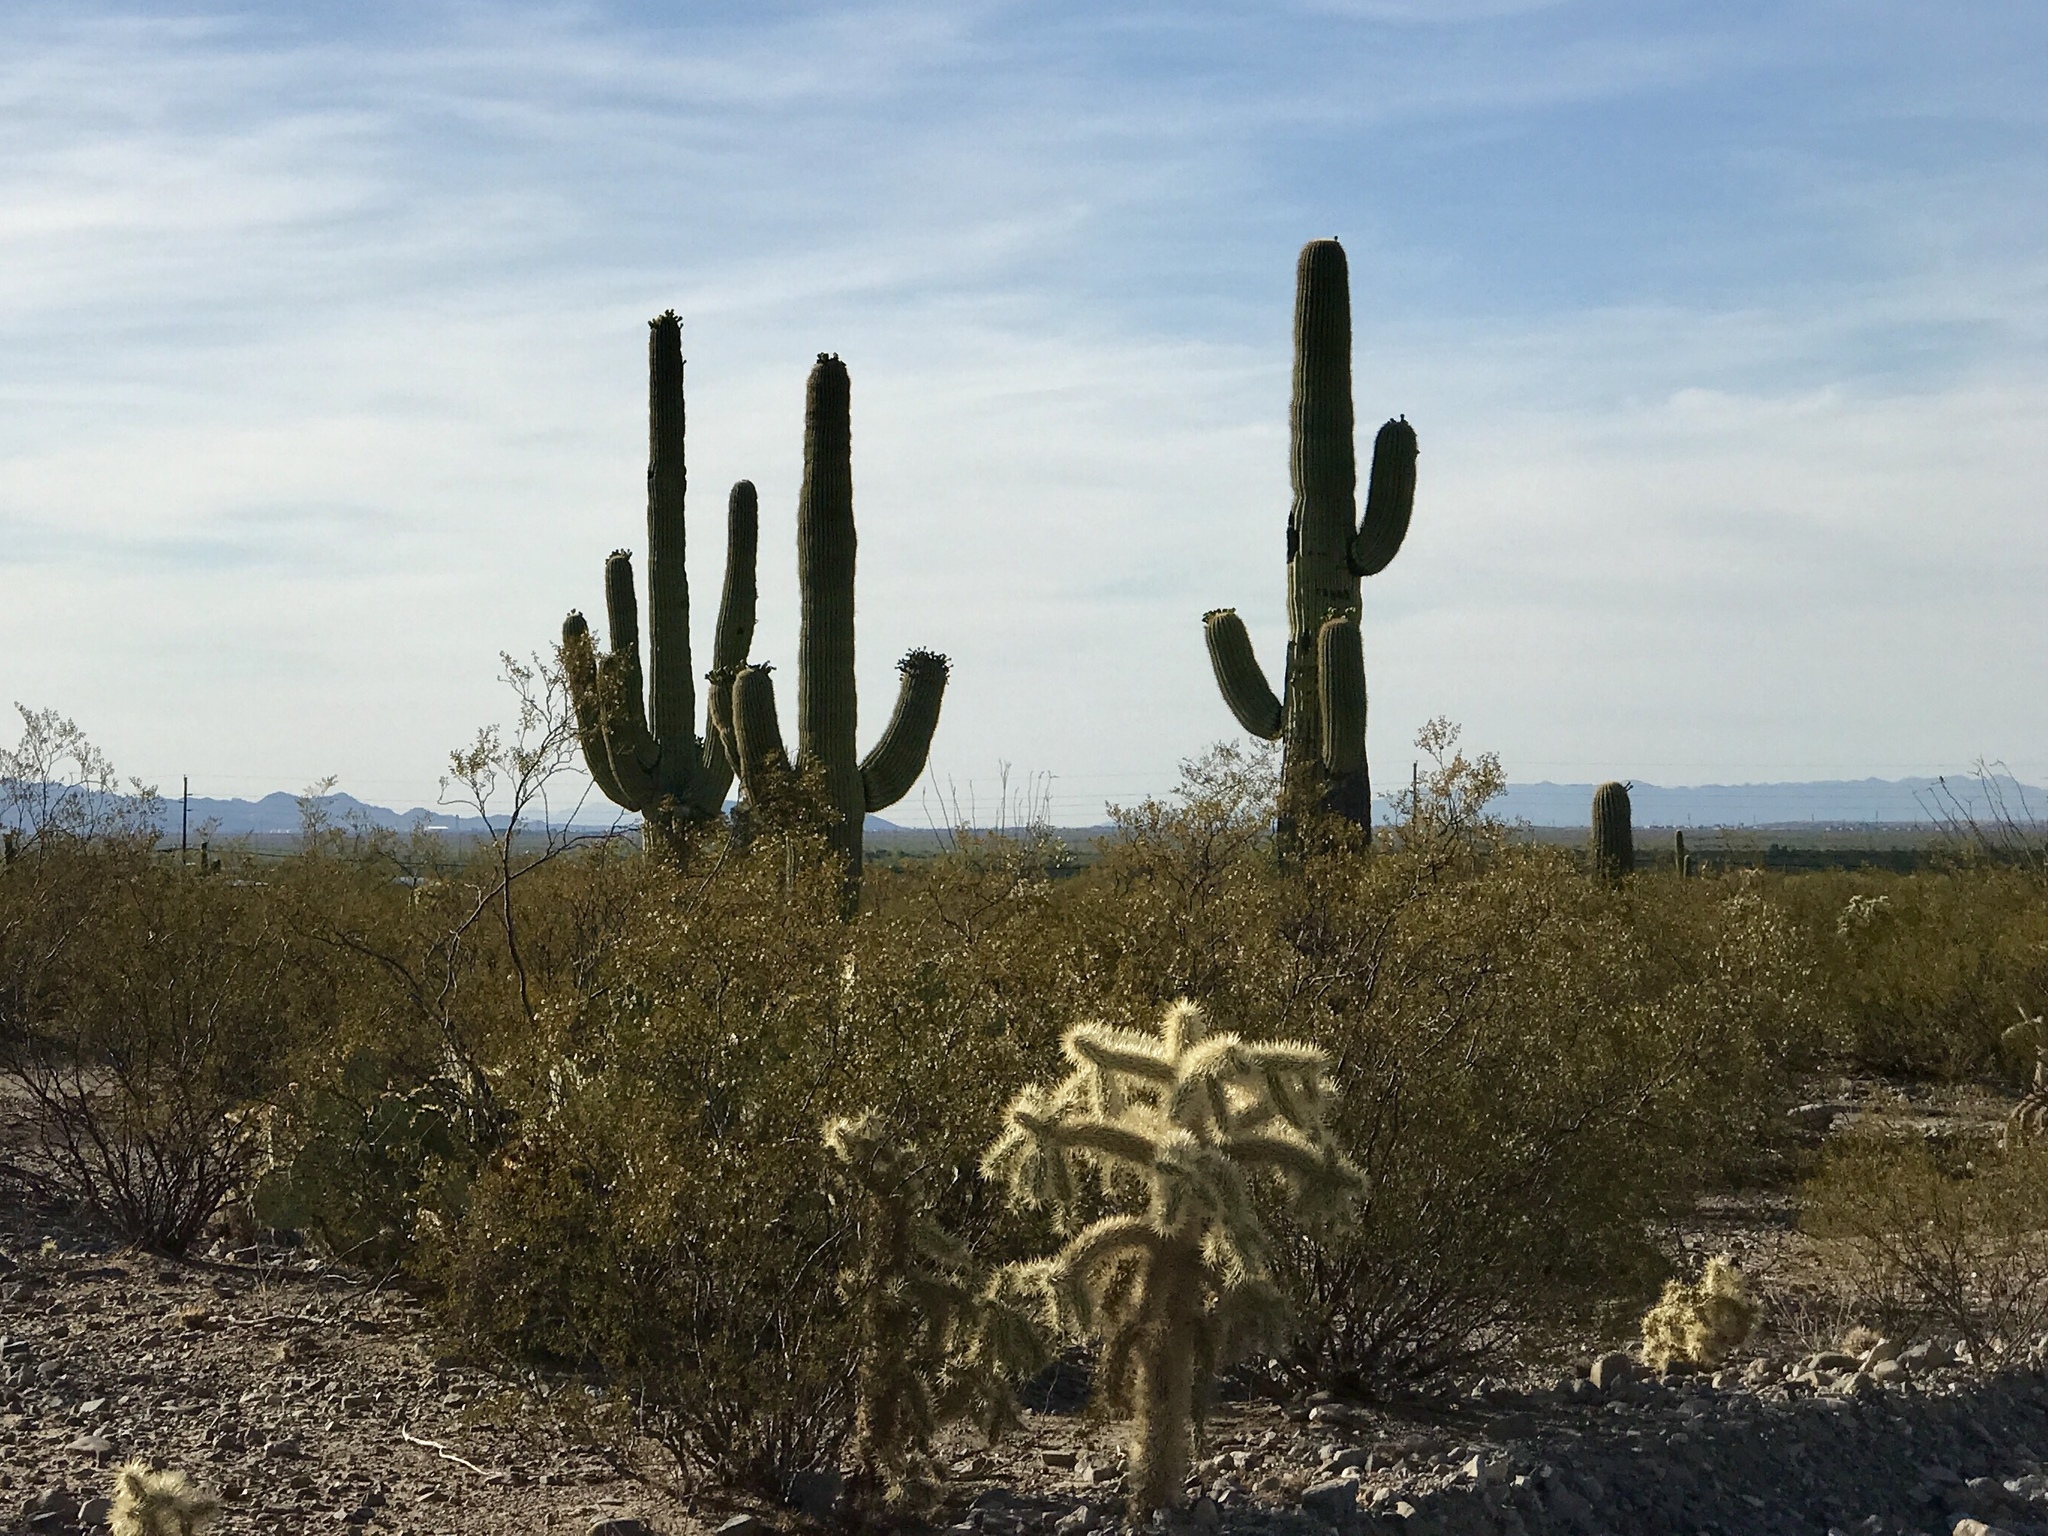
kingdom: Plantae
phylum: Tracheophyta
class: Magnoliopsida
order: Caryophyllales
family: Cactaceae
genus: Carnegiea
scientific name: Carnegiea gigantea
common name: Saguaro
